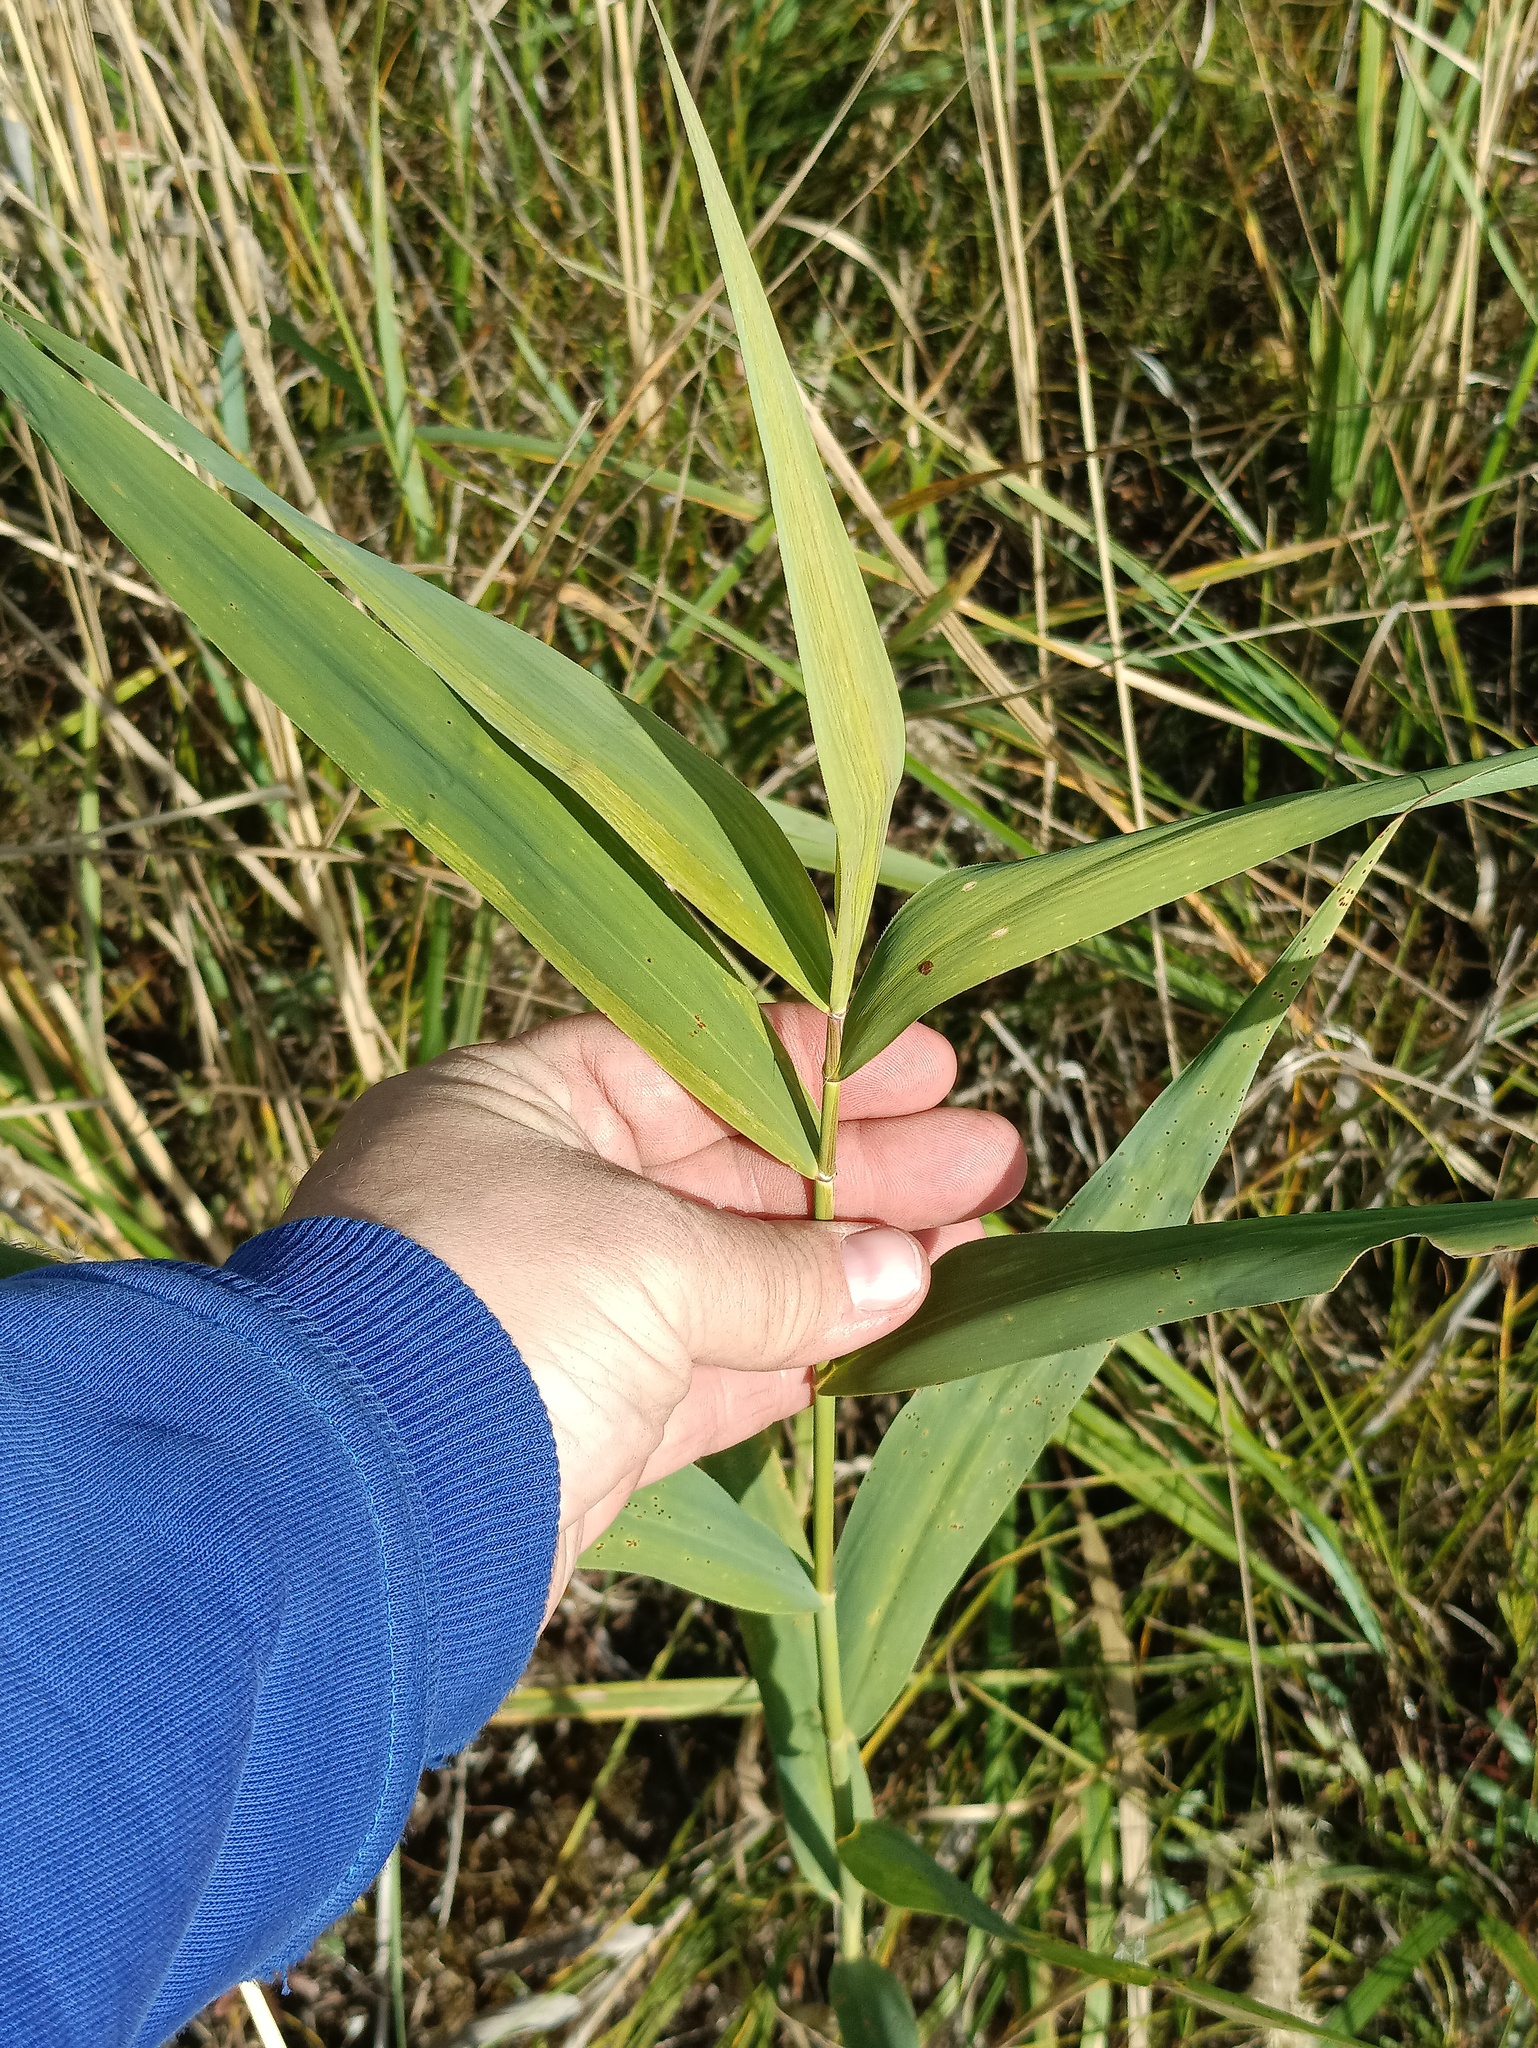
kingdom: Plantae
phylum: Tracheophyta
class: Liliopsida
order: Poales
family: Poaceae
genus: Phragmites
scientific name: Phragmites australis
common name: Common reed
